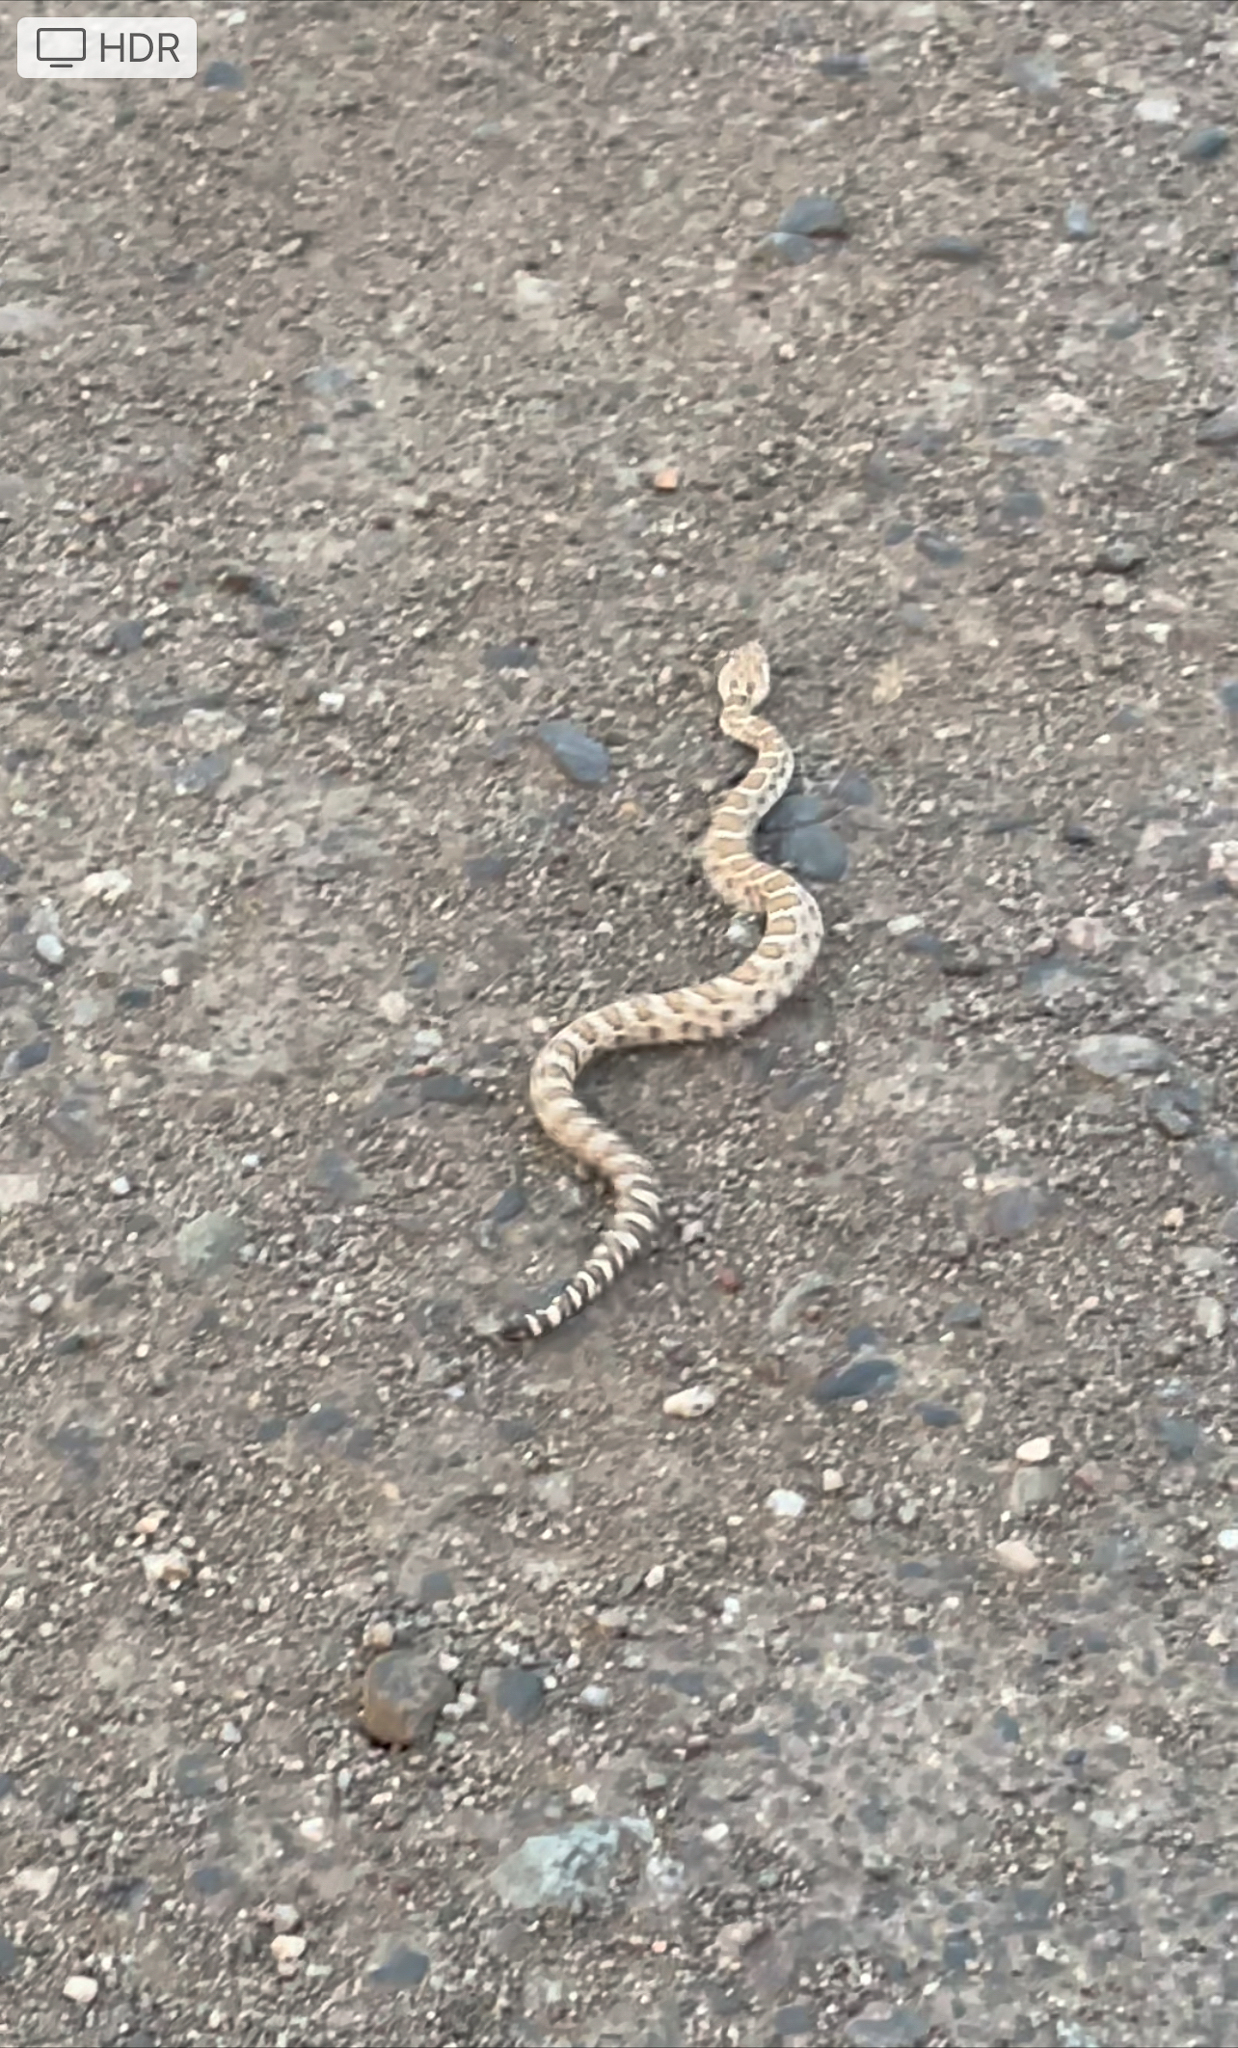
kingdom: Animalia
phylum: Chordata
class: Squamata
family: Viperidae
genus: Crotalus
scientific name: Crotalus oreganus
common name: Abyssus
